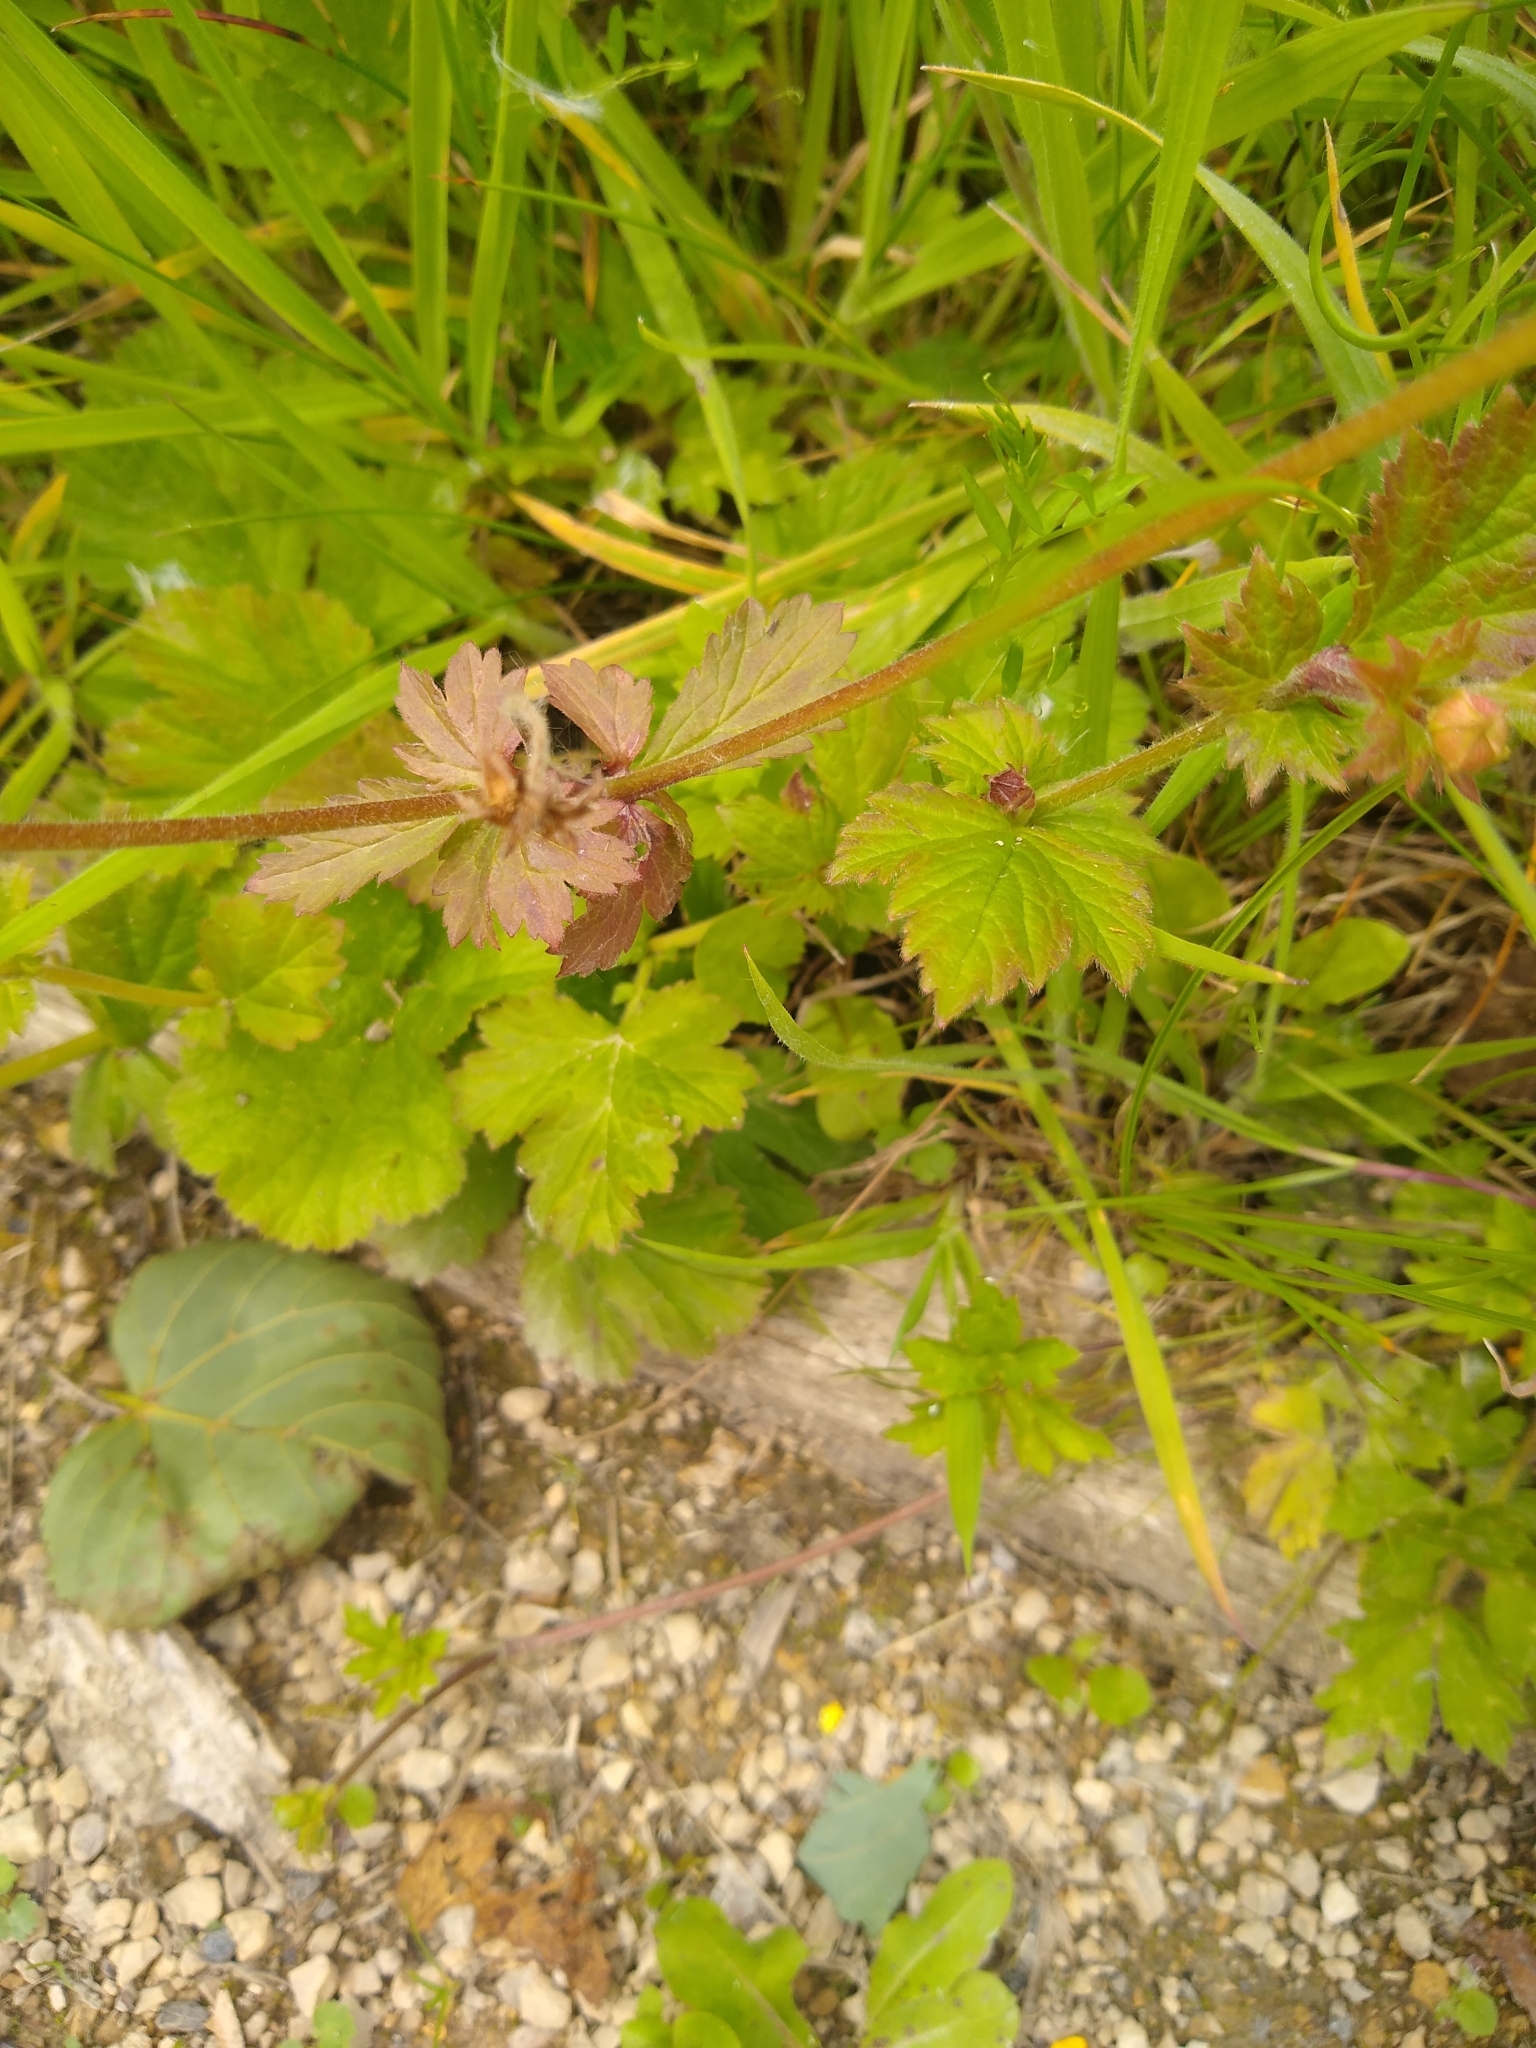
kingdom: Plantae
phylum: Tracheophyta
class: Magnoliopsida
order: Rosales
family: Rosaceae
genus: Geum
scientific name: Geum urbanum
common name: Wood avens
